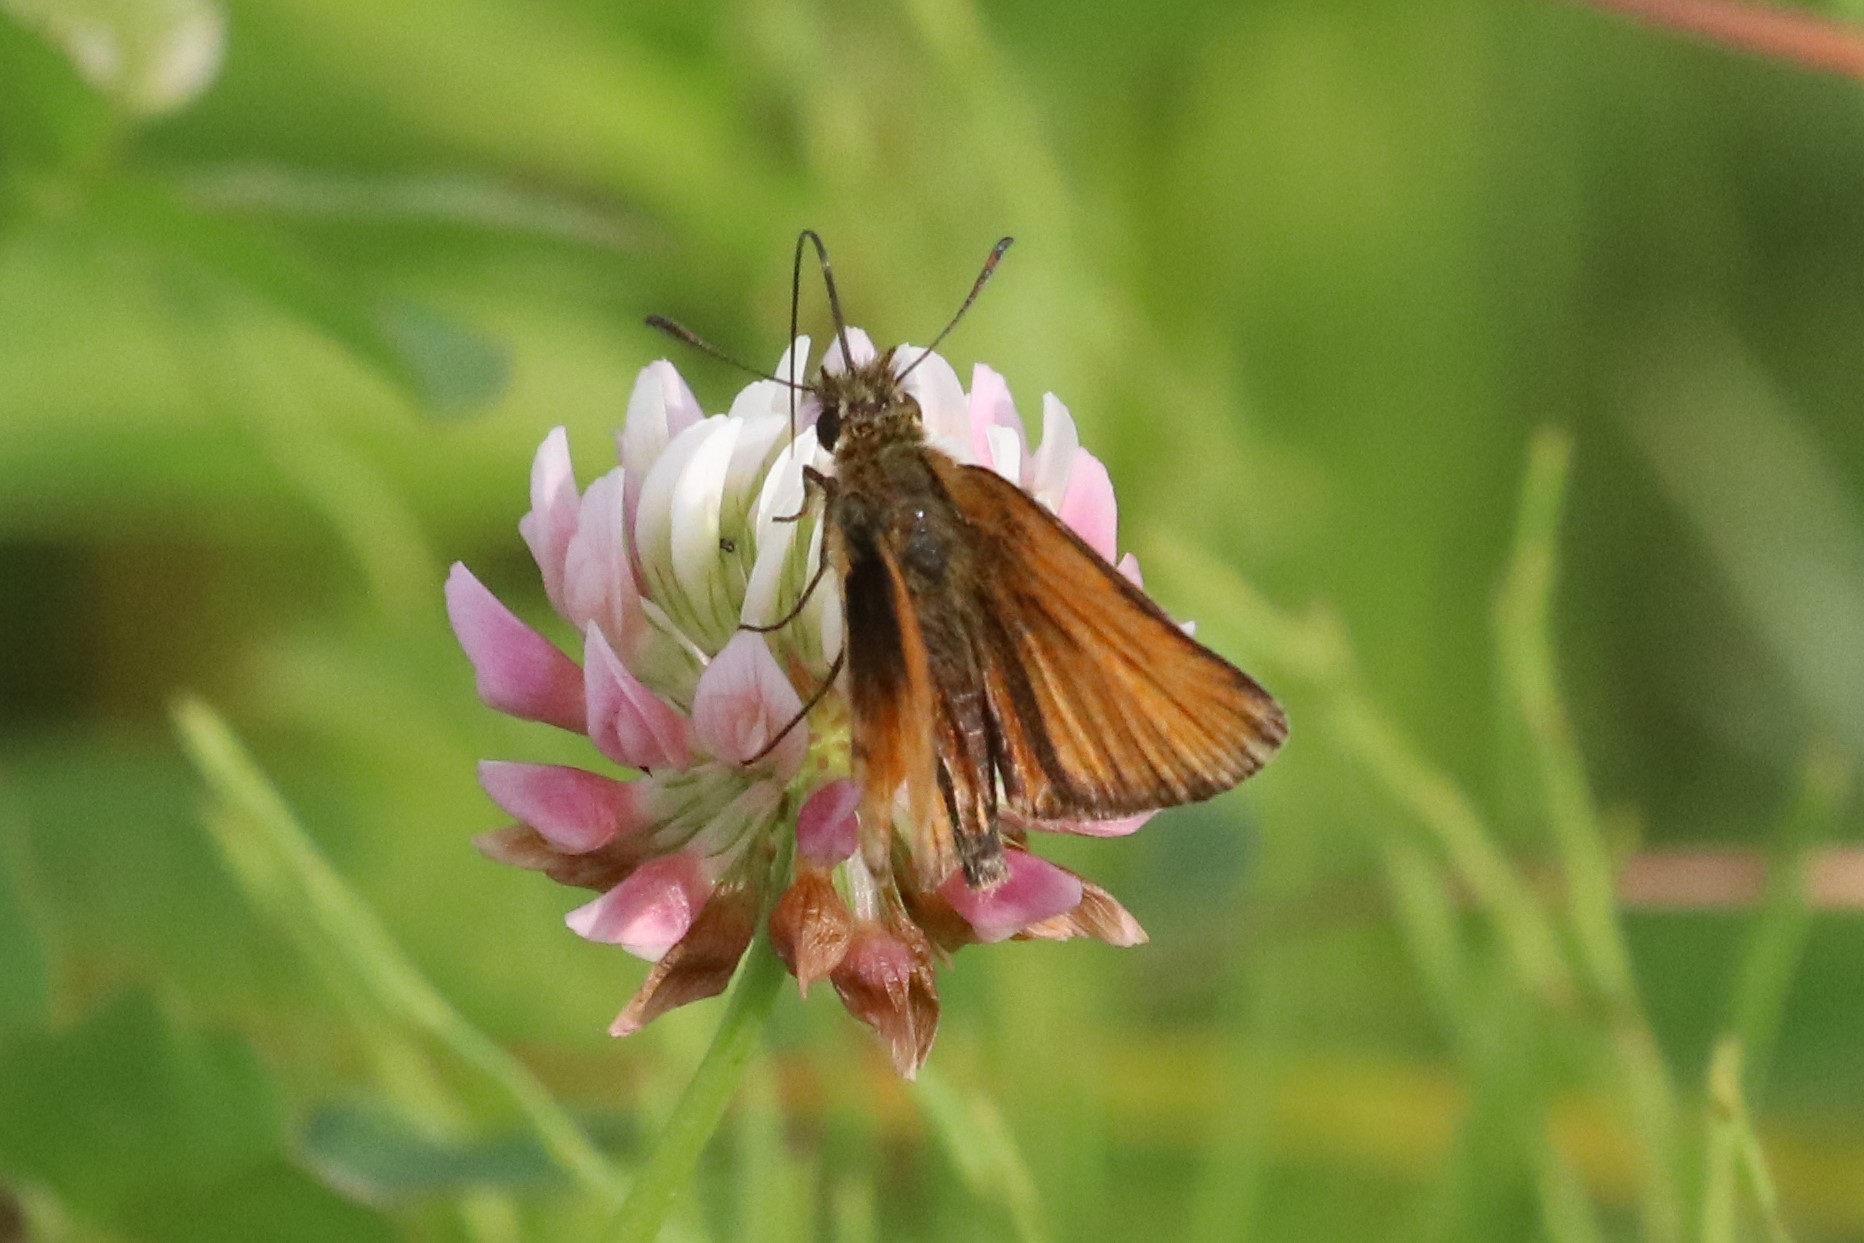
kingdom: Animalia
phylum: Arthropoda
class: Insecta
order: Lepidoptera
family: Hesperiidae
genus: Thymelicus
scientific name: Thymelicus lineola
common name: Essex skipper
